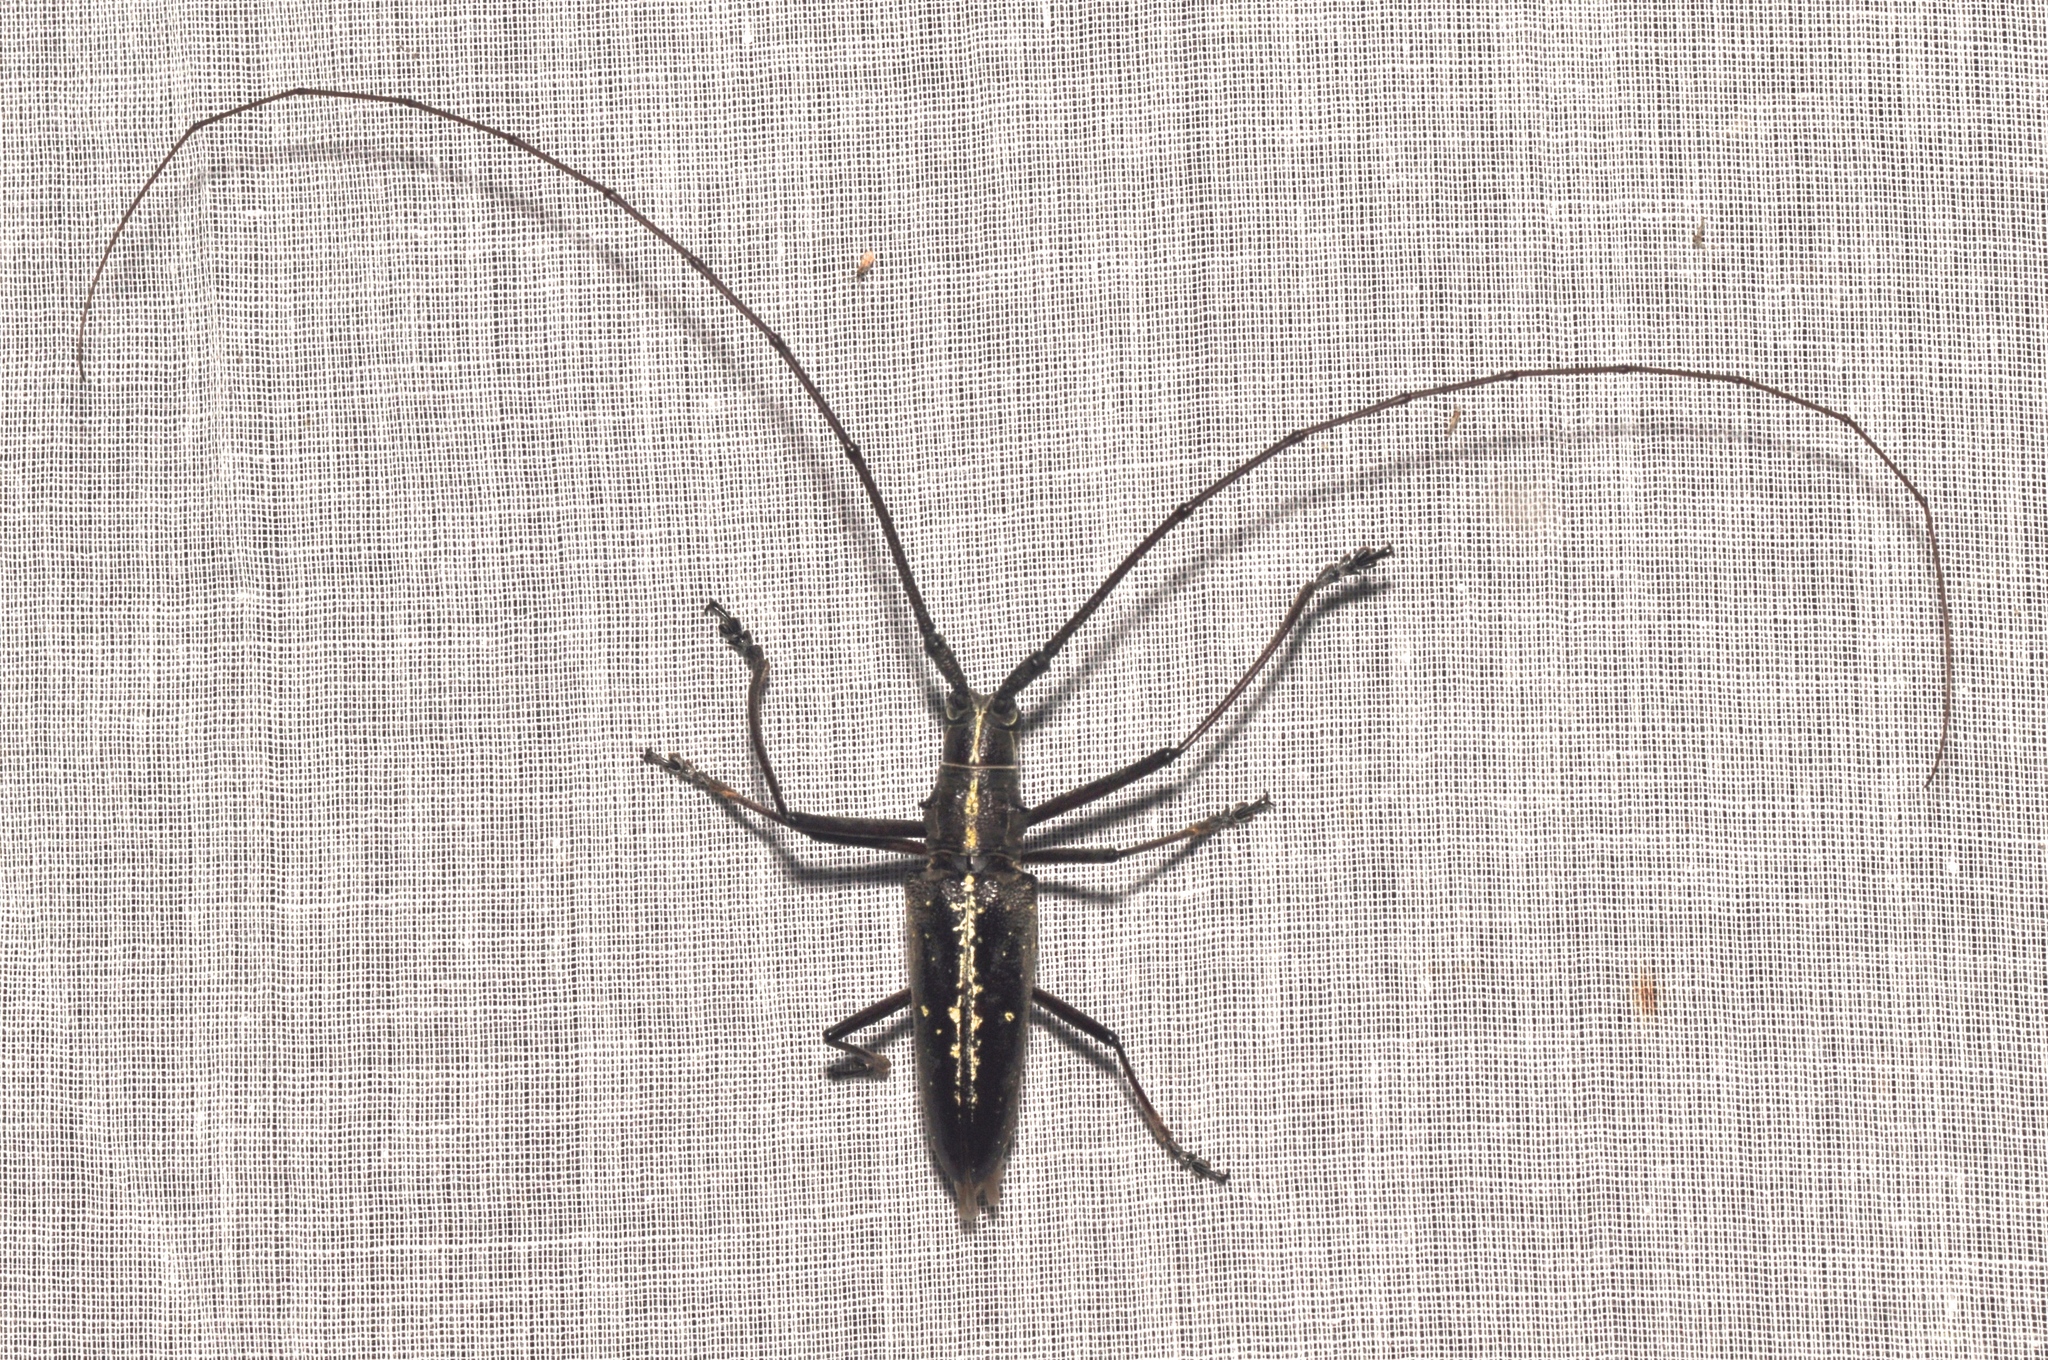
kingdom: Animalia
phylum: Arthropoda
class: Insecta
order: Coleoptera
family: Cerambycidae
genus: Taeniotes
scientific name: Taeniotes amazonum
